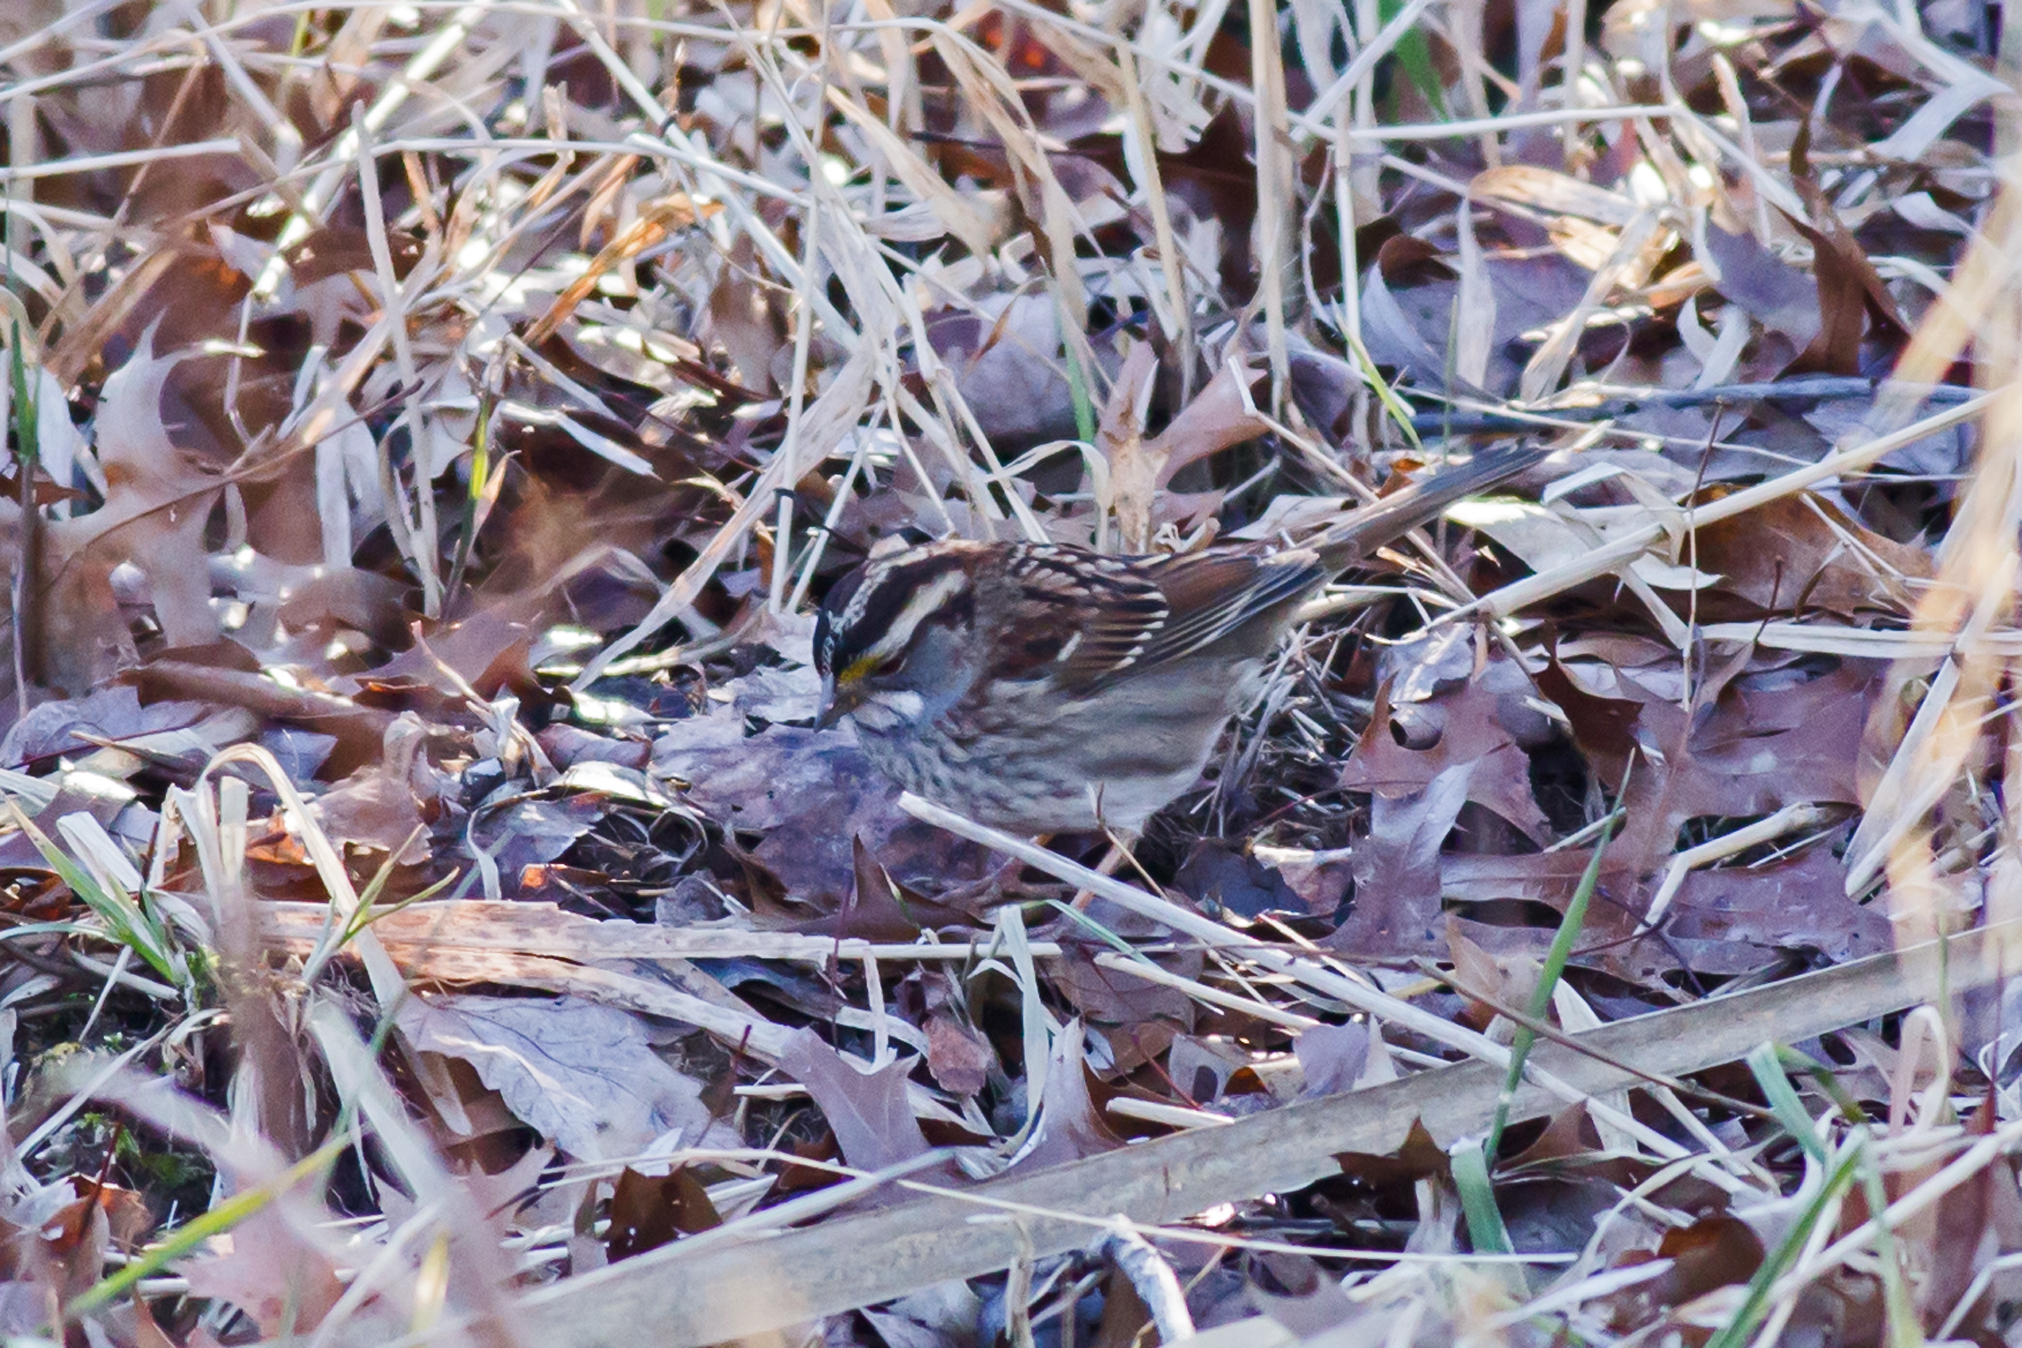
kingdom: Animalia
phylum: Chordata
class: Aves
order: Passeriformes
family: Passerellidae
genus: Zonotrichia
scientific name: Zonotrichia albicollis
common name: White-throated sparrow
